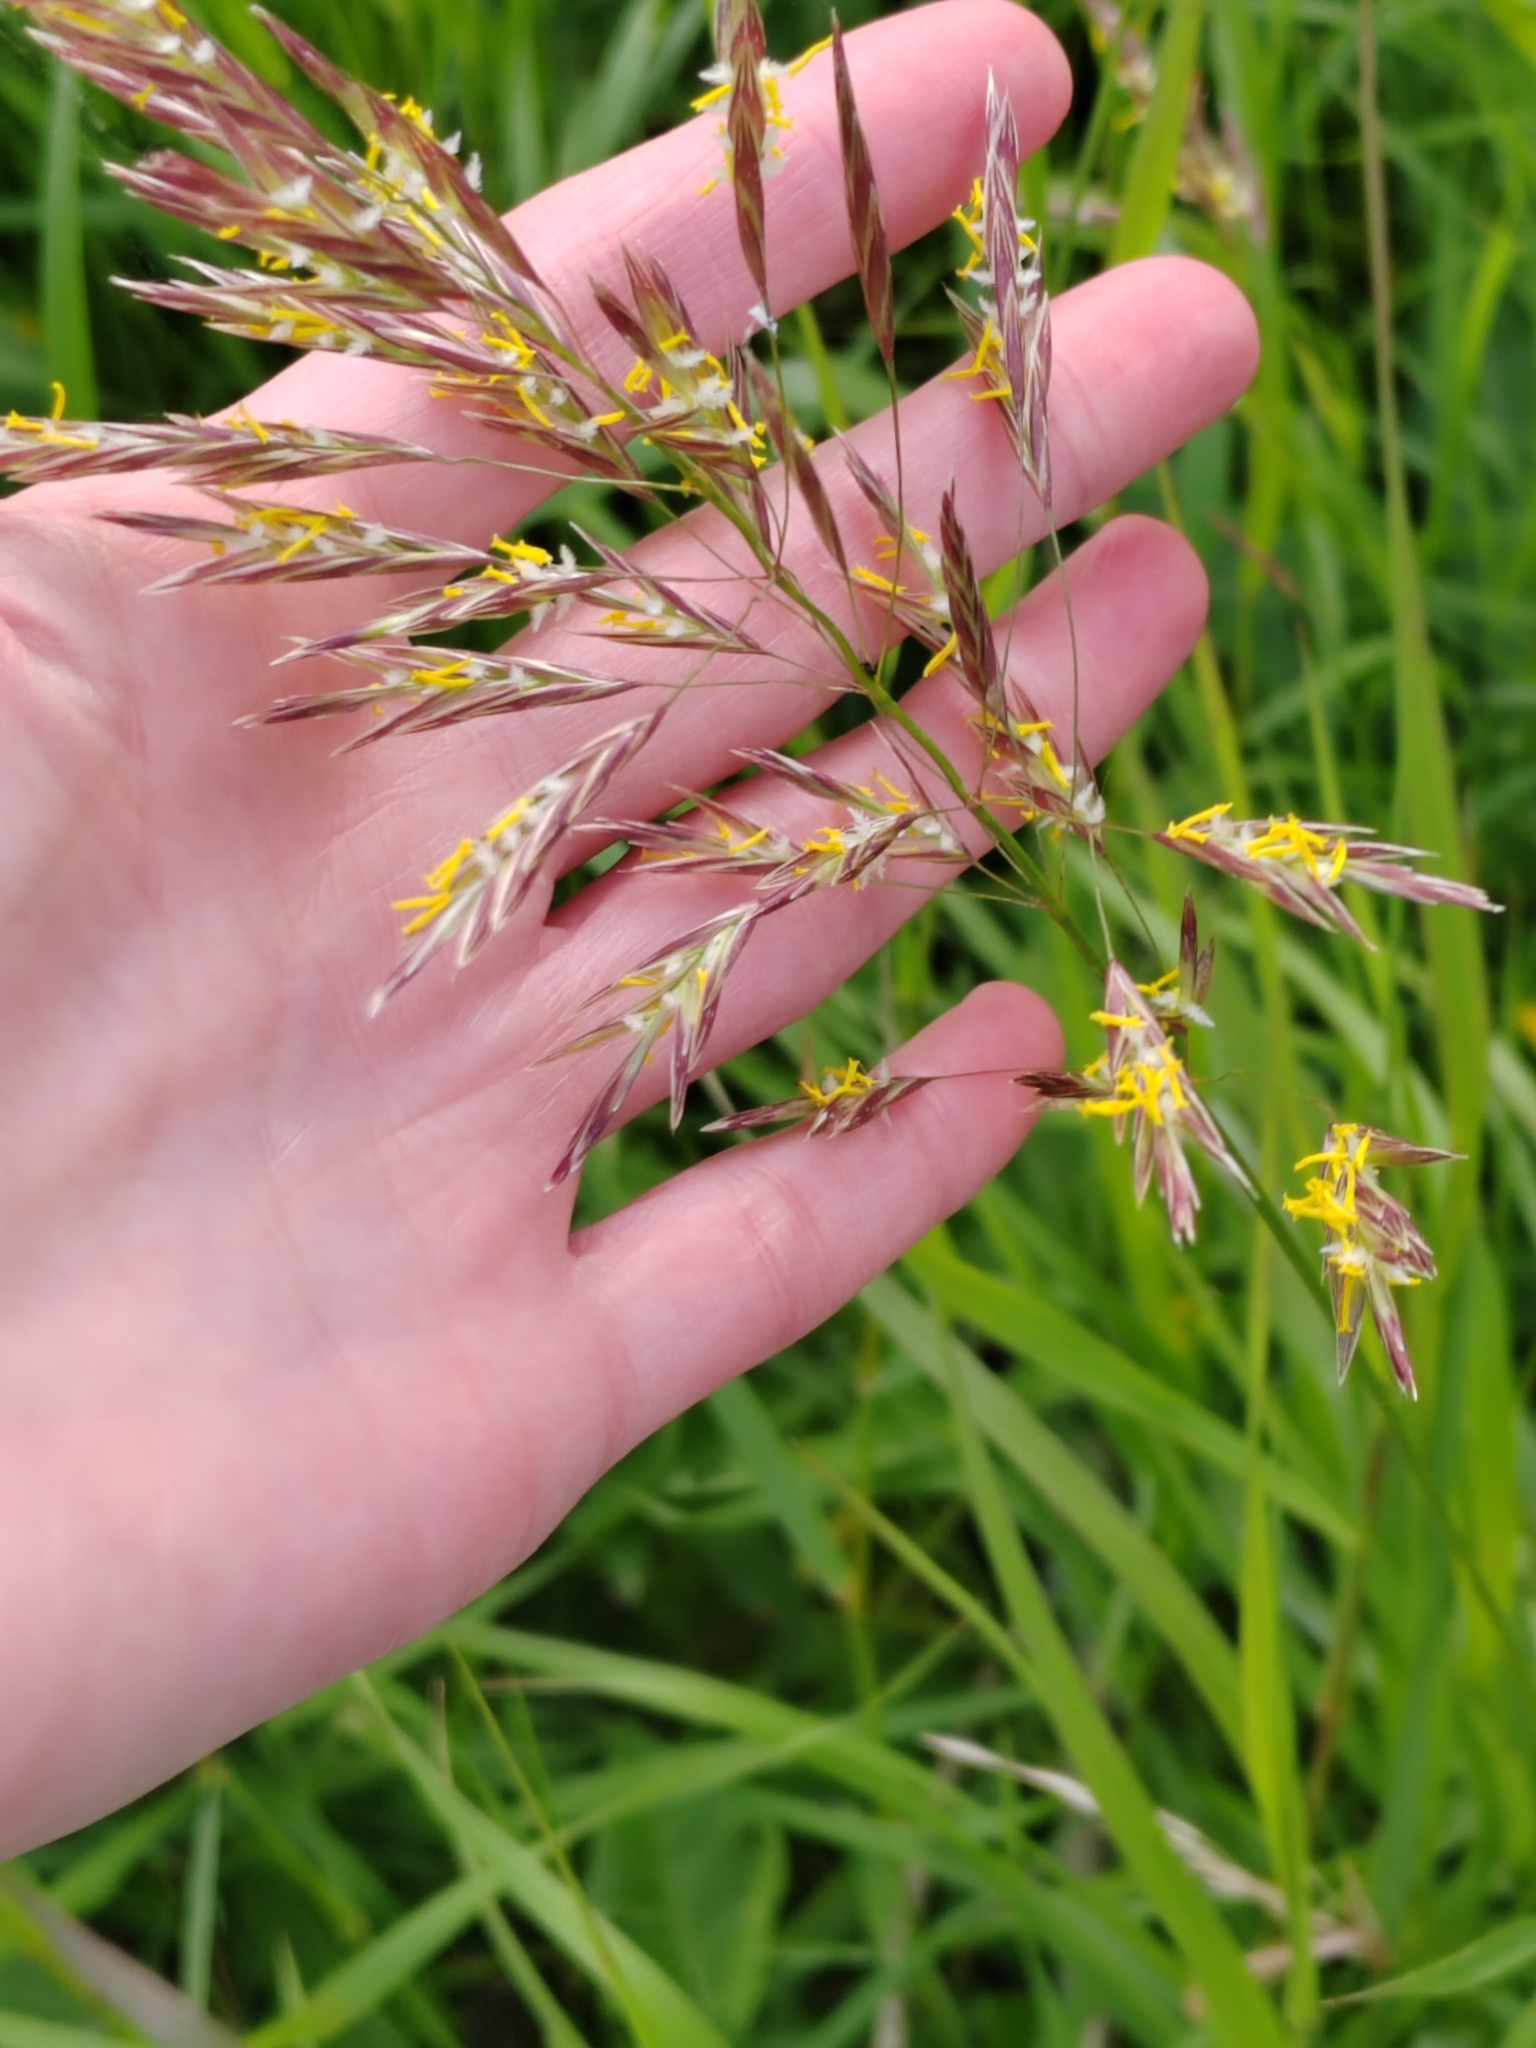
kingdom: Plantae
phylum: Tracheophyta
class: Liliopsida
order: Poales
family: Poaceae
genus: Bromus
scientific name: Bromus inermis
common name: Smooth brome
